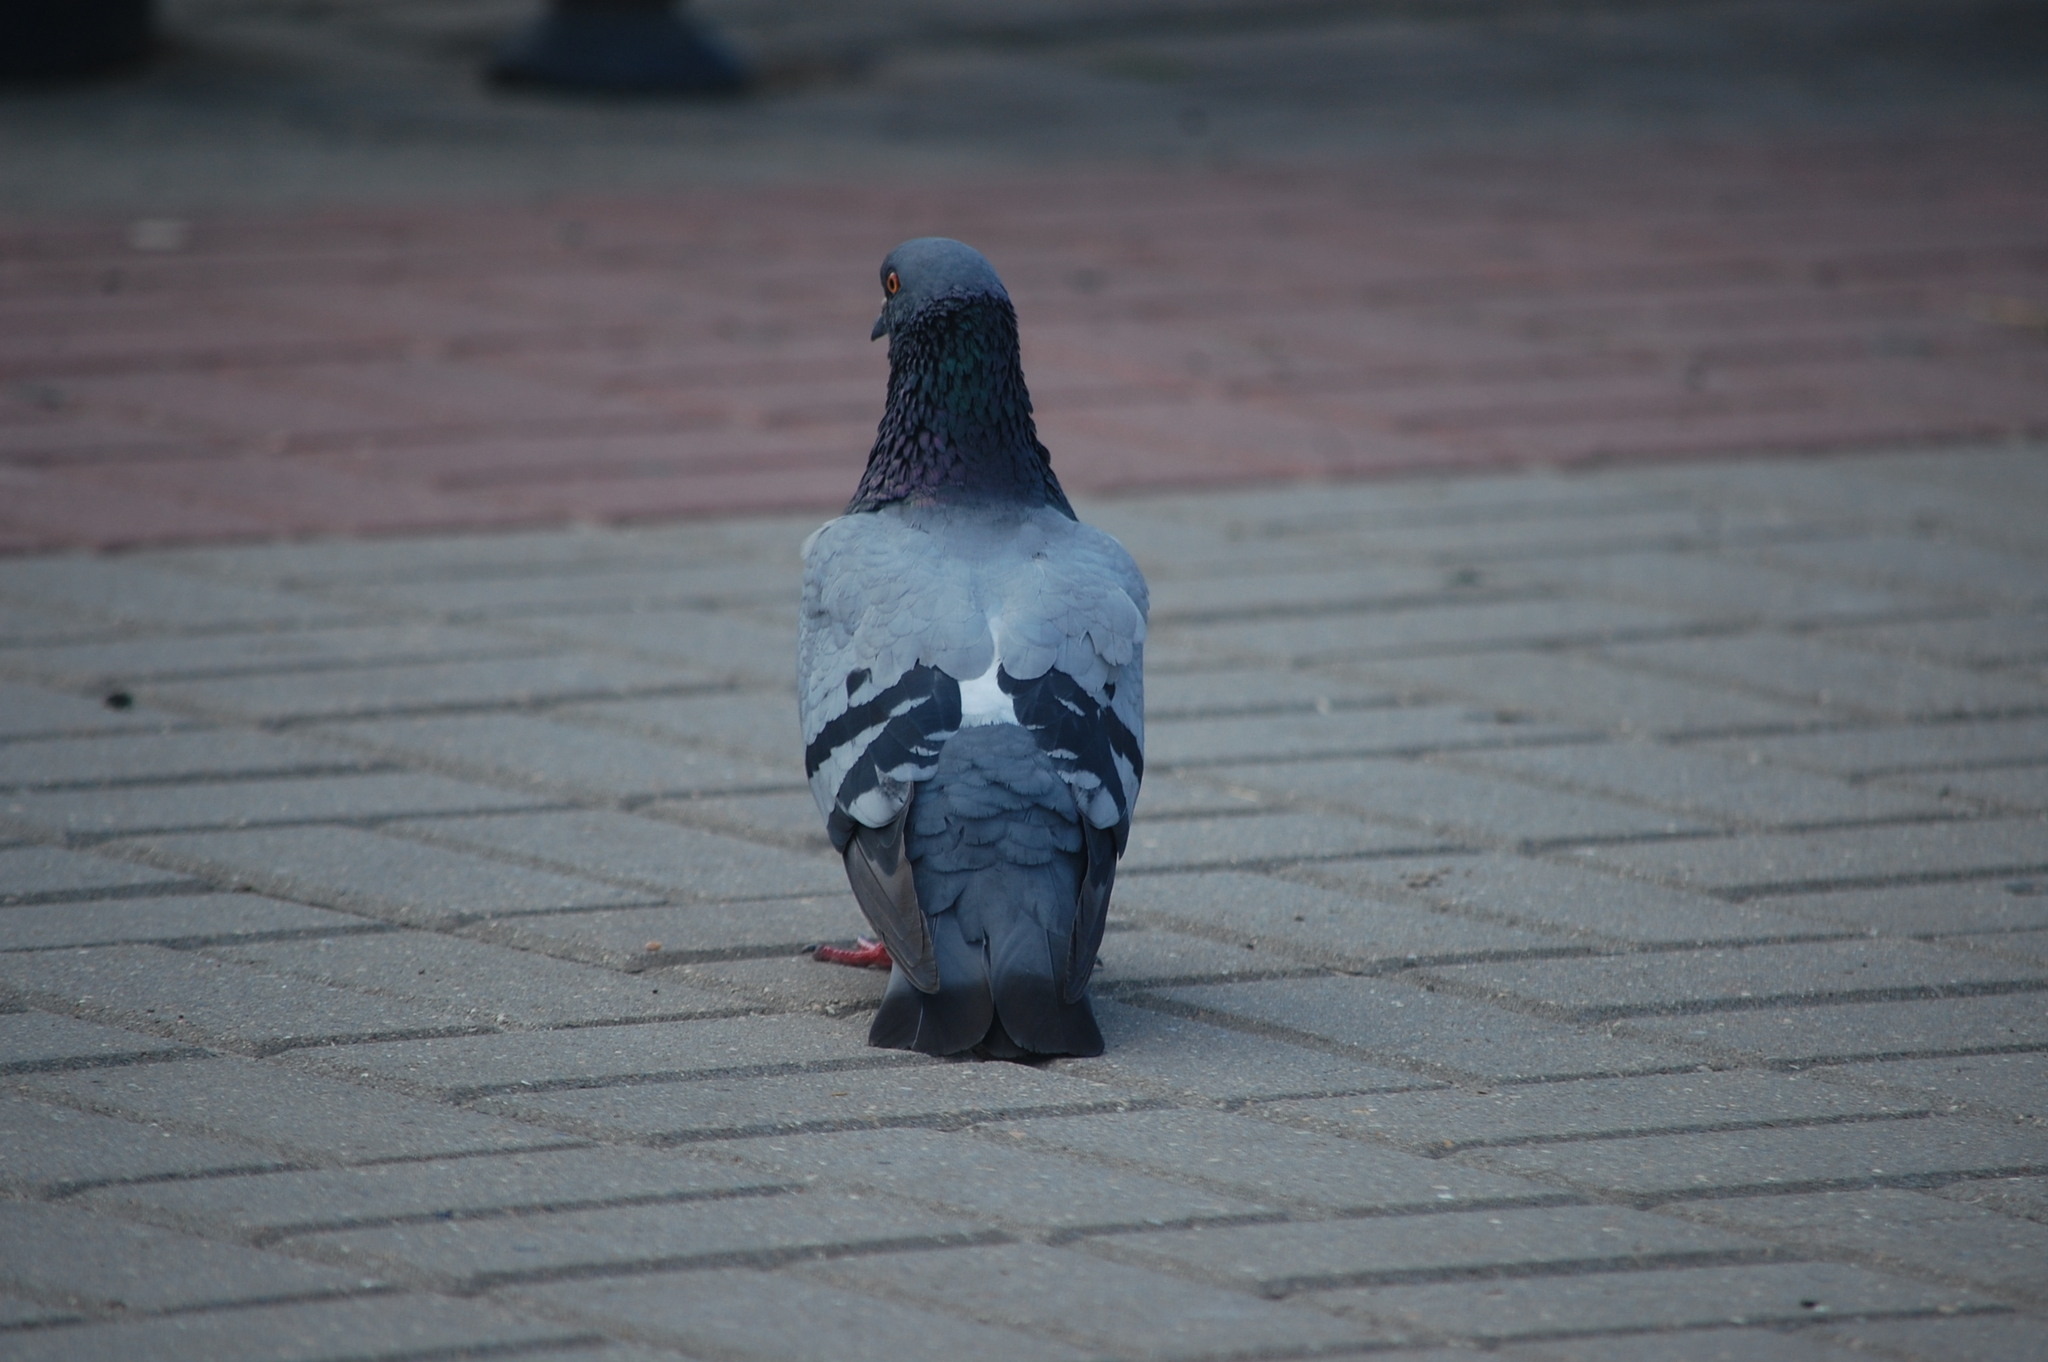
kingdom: Animalia
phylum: Chordata
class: Aves
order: Columbiformes
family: Columbidae
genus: Columba
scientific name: Columba livia
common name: Rock pigeon
